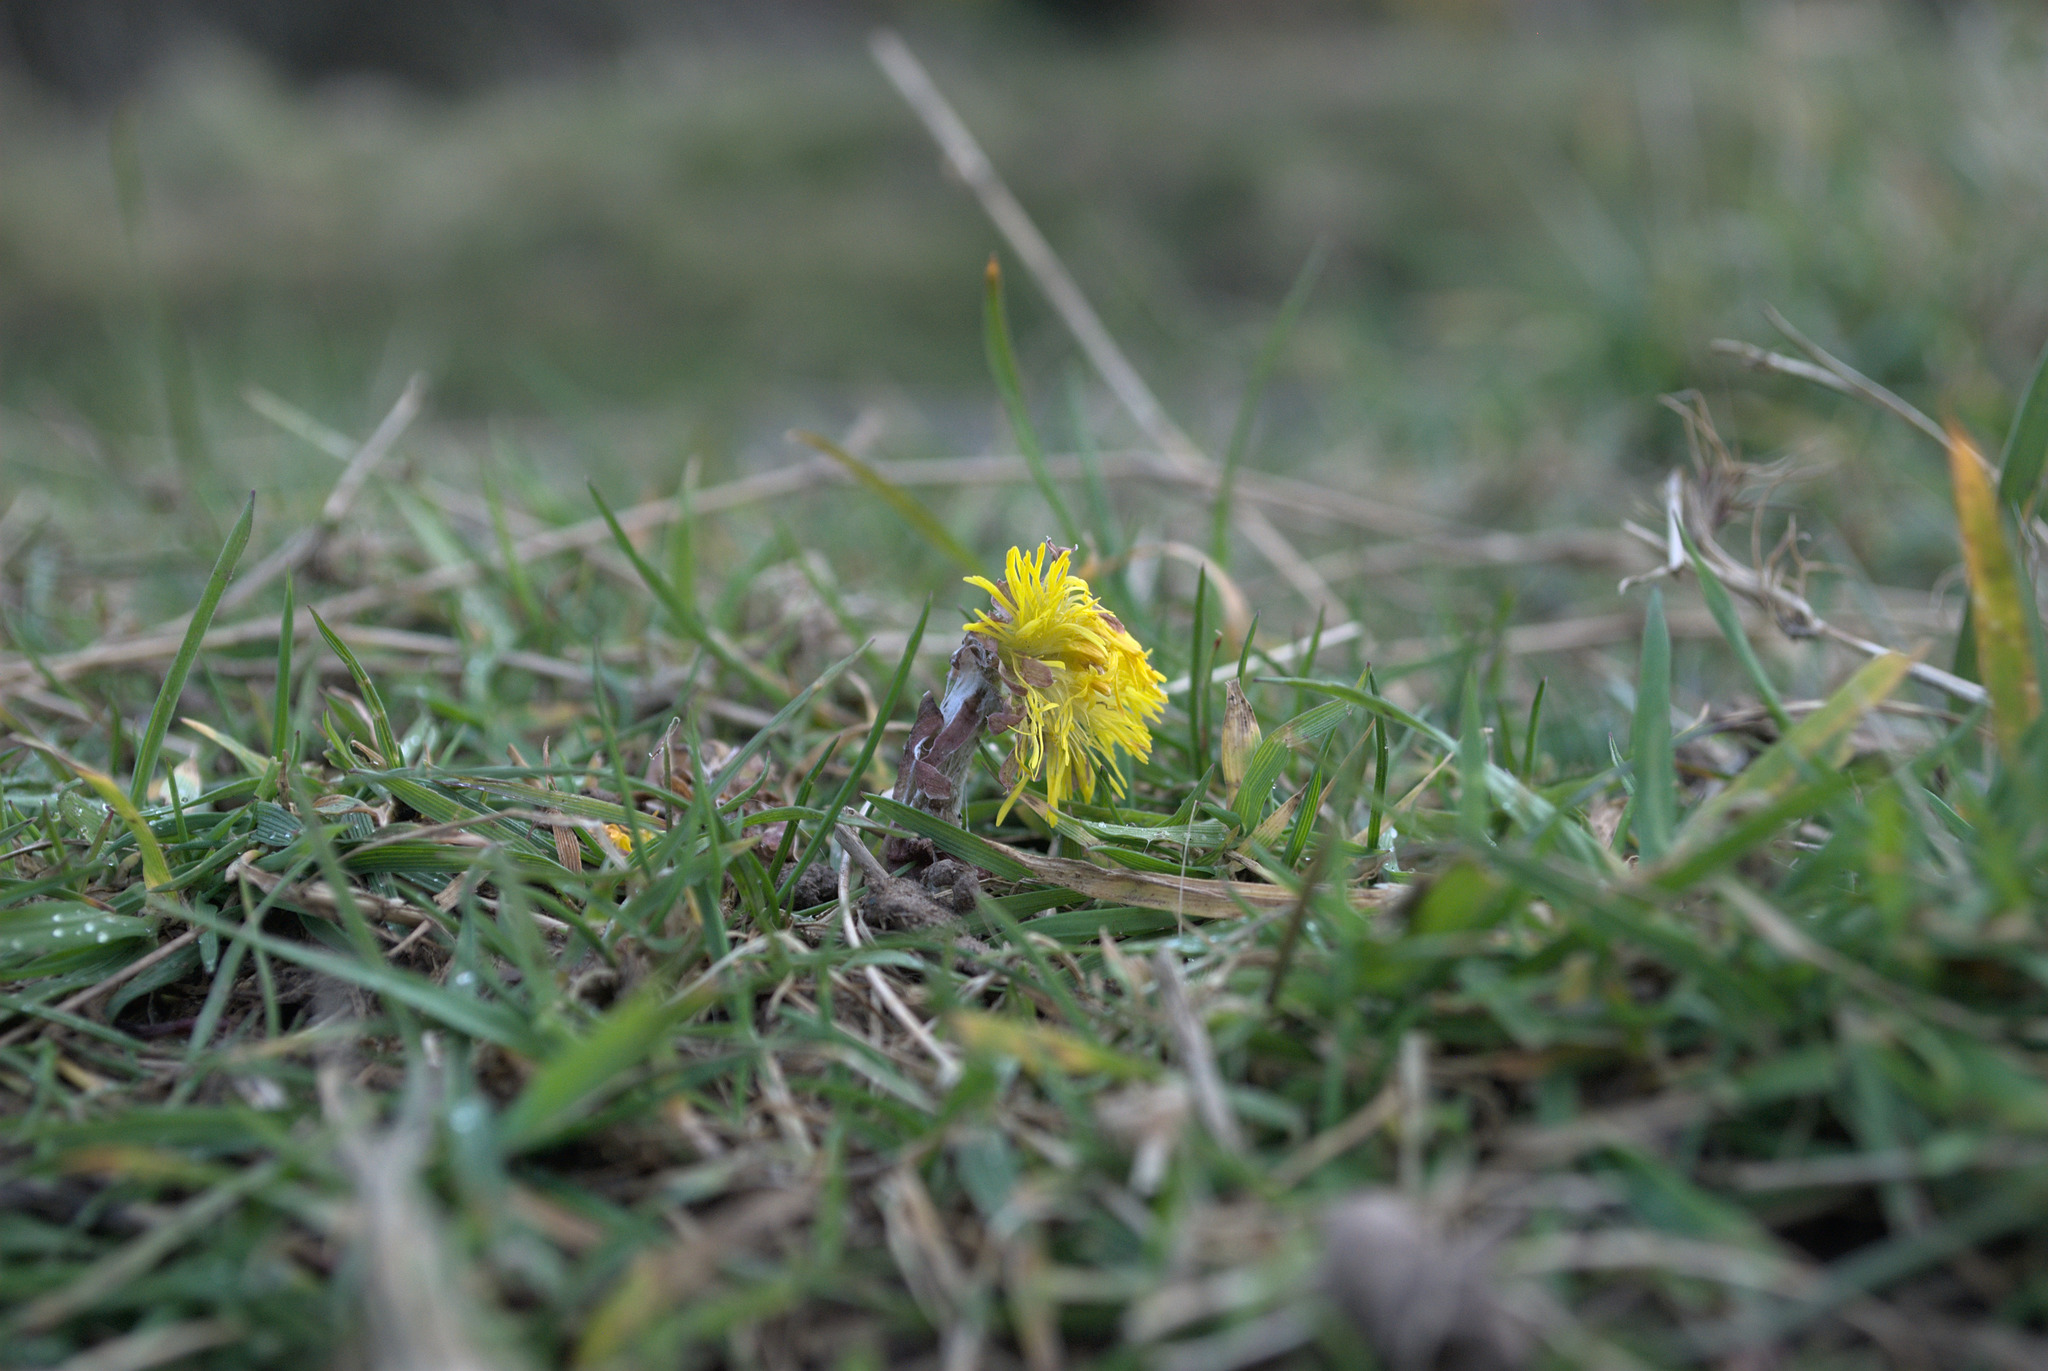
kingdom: Plantae
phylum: Tracheophyta
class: Magnoliopsida
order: Asterales
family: Asteraceae
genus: Tussilago
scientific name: Tussilago farfara
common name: Coltsfoot
